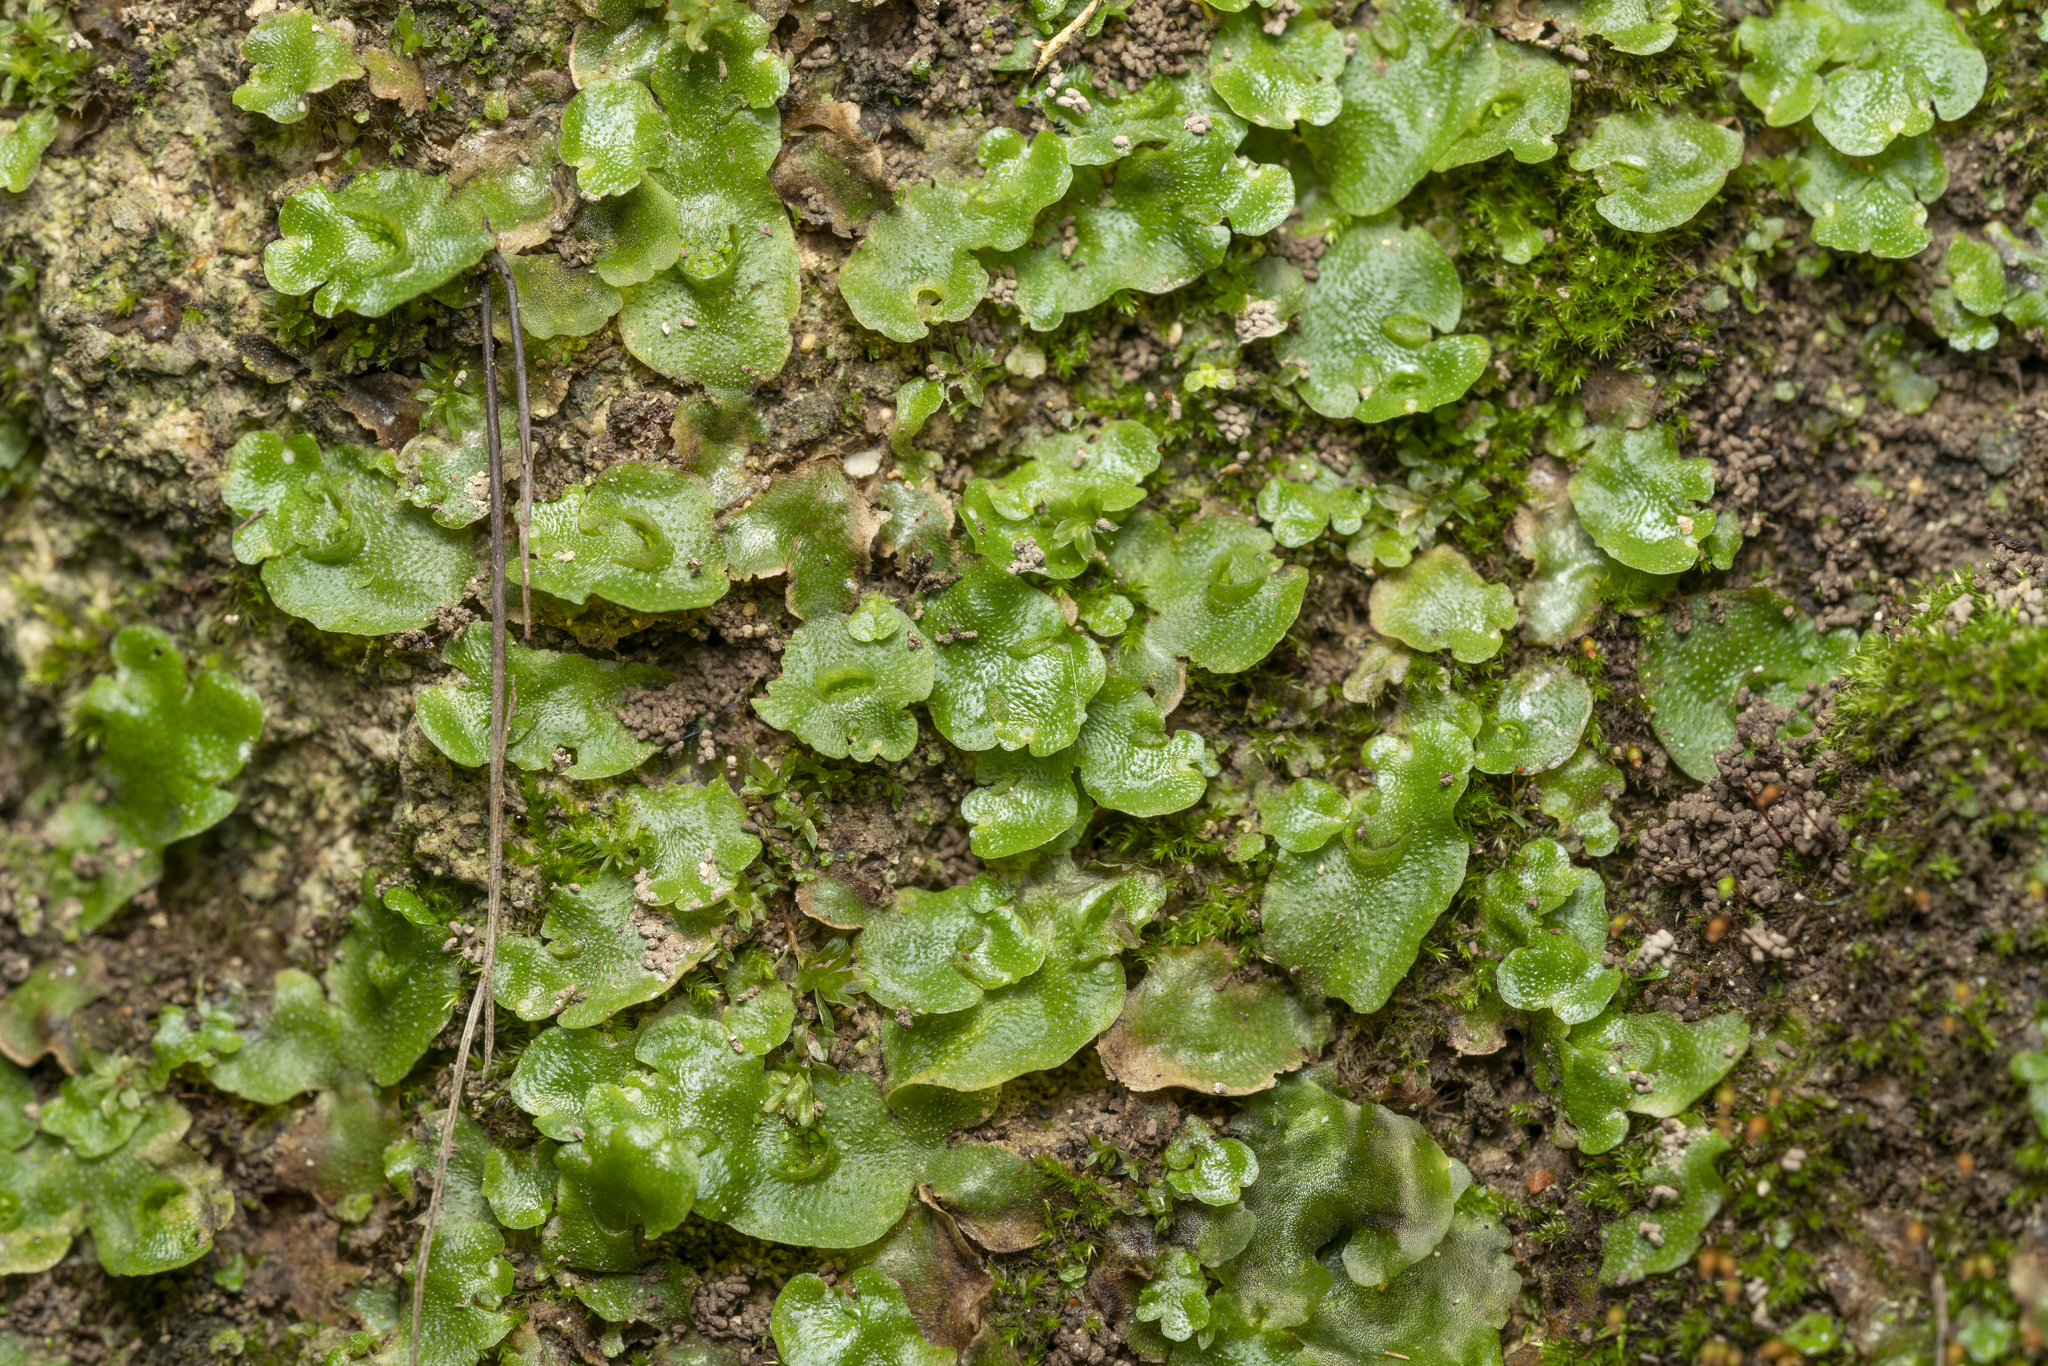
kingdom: Plantae
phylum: Marchantiophyta
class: Marchantiopsida
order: Lunulariales
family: Lunulariaceae
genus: Lunularia
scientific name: Lunularia cruciata
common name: Crescent-cup liverwort
